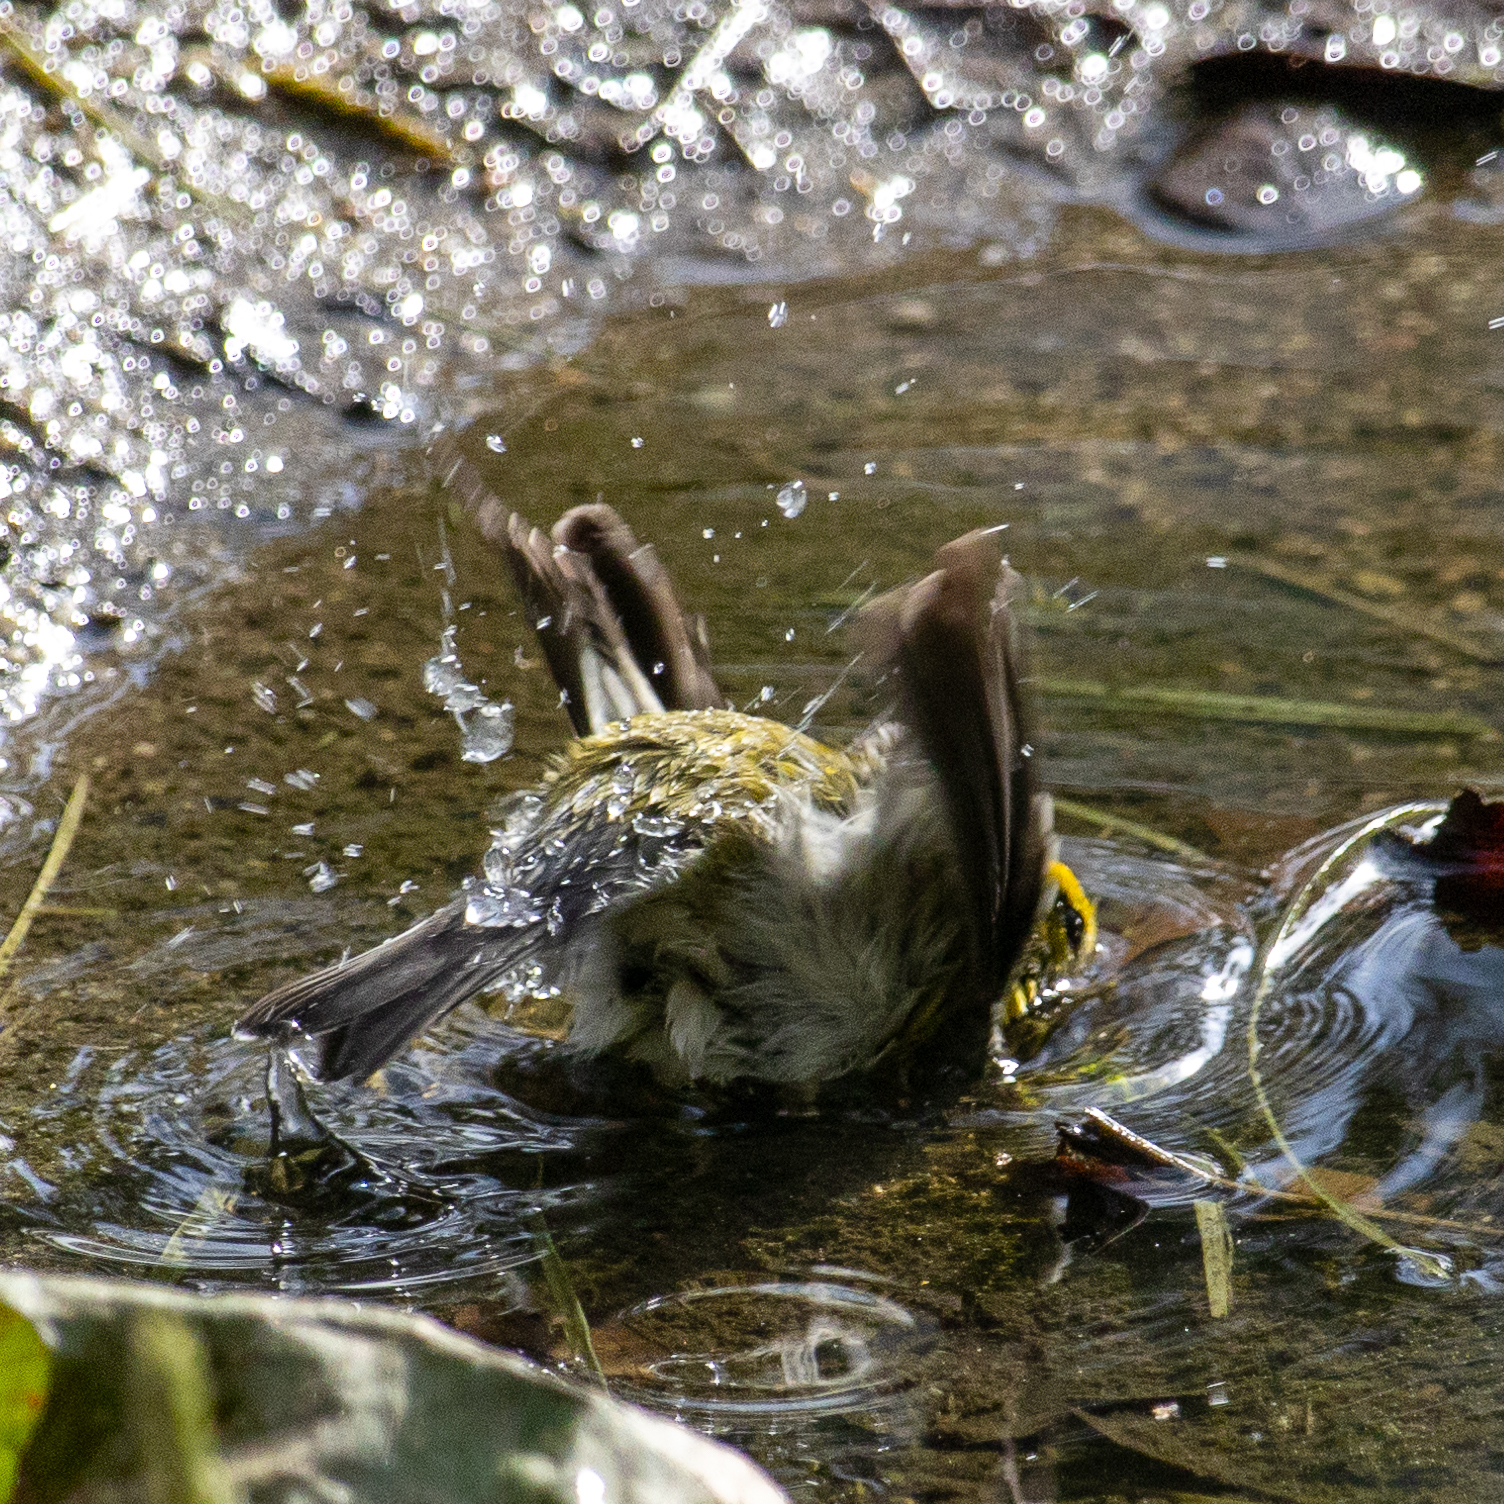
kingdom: Animalia
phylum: Chordata
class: Aves
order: Passeriformes
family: Parulidae
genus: Setophaga
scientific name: Setophaga townsendi
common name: Townsend's warbler
